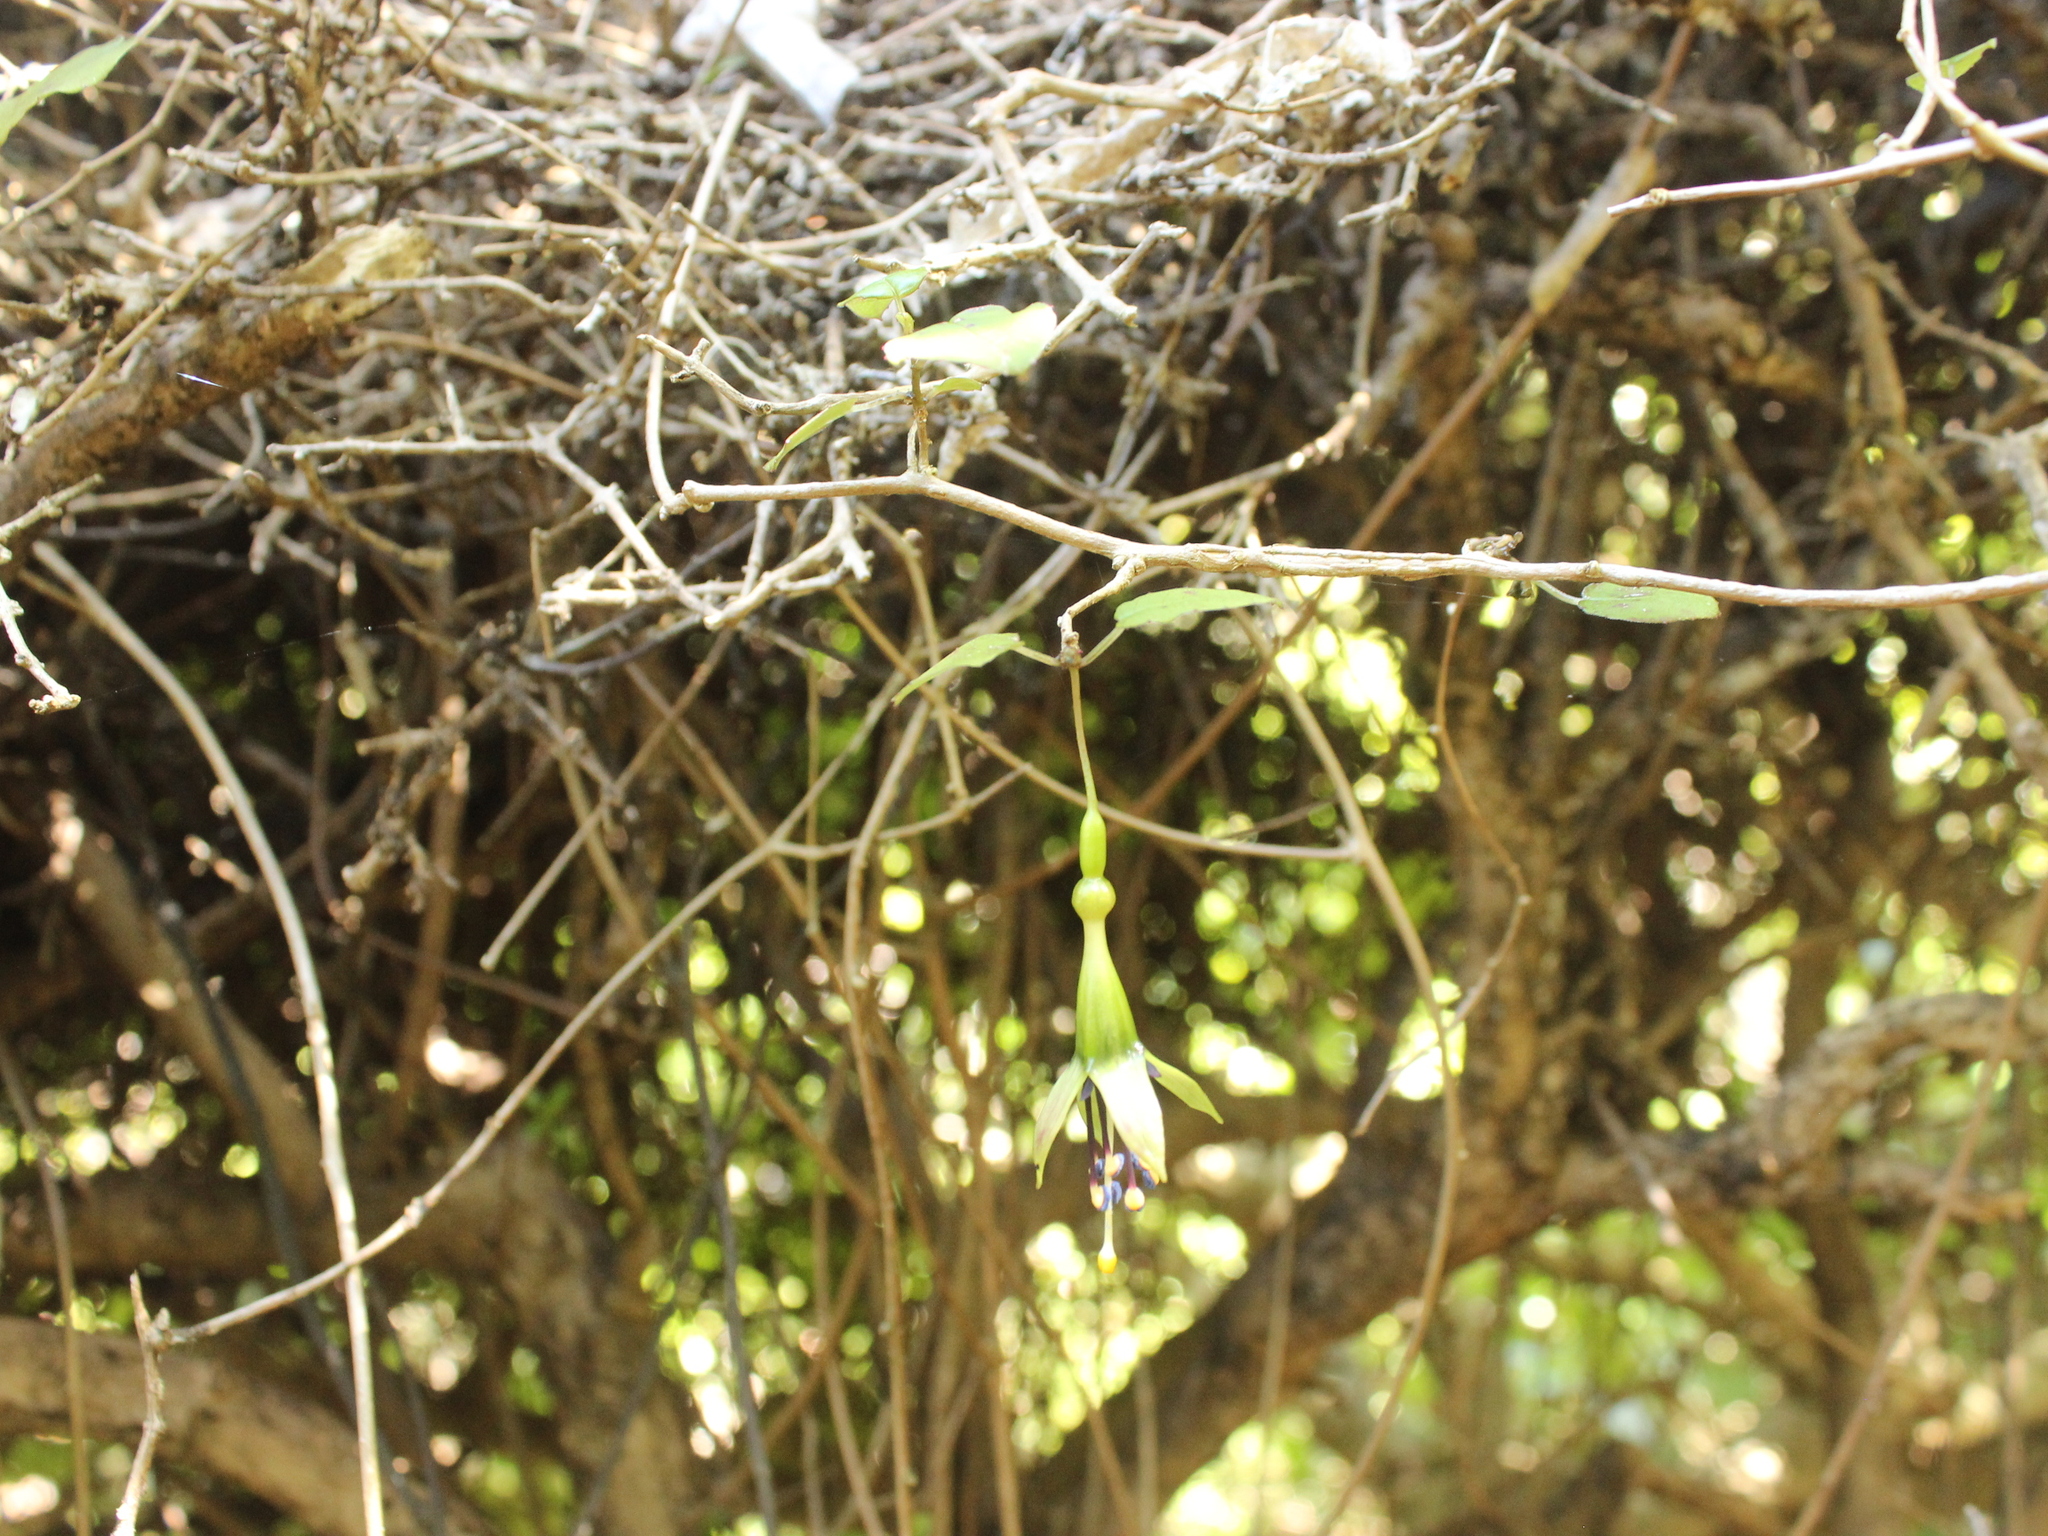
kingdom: Plantae
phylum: Tracheophyta
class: Magnoliopsida
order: Myrtales
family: Onagraceae
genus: Fuchsia
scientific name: Fuchsia perscandens
